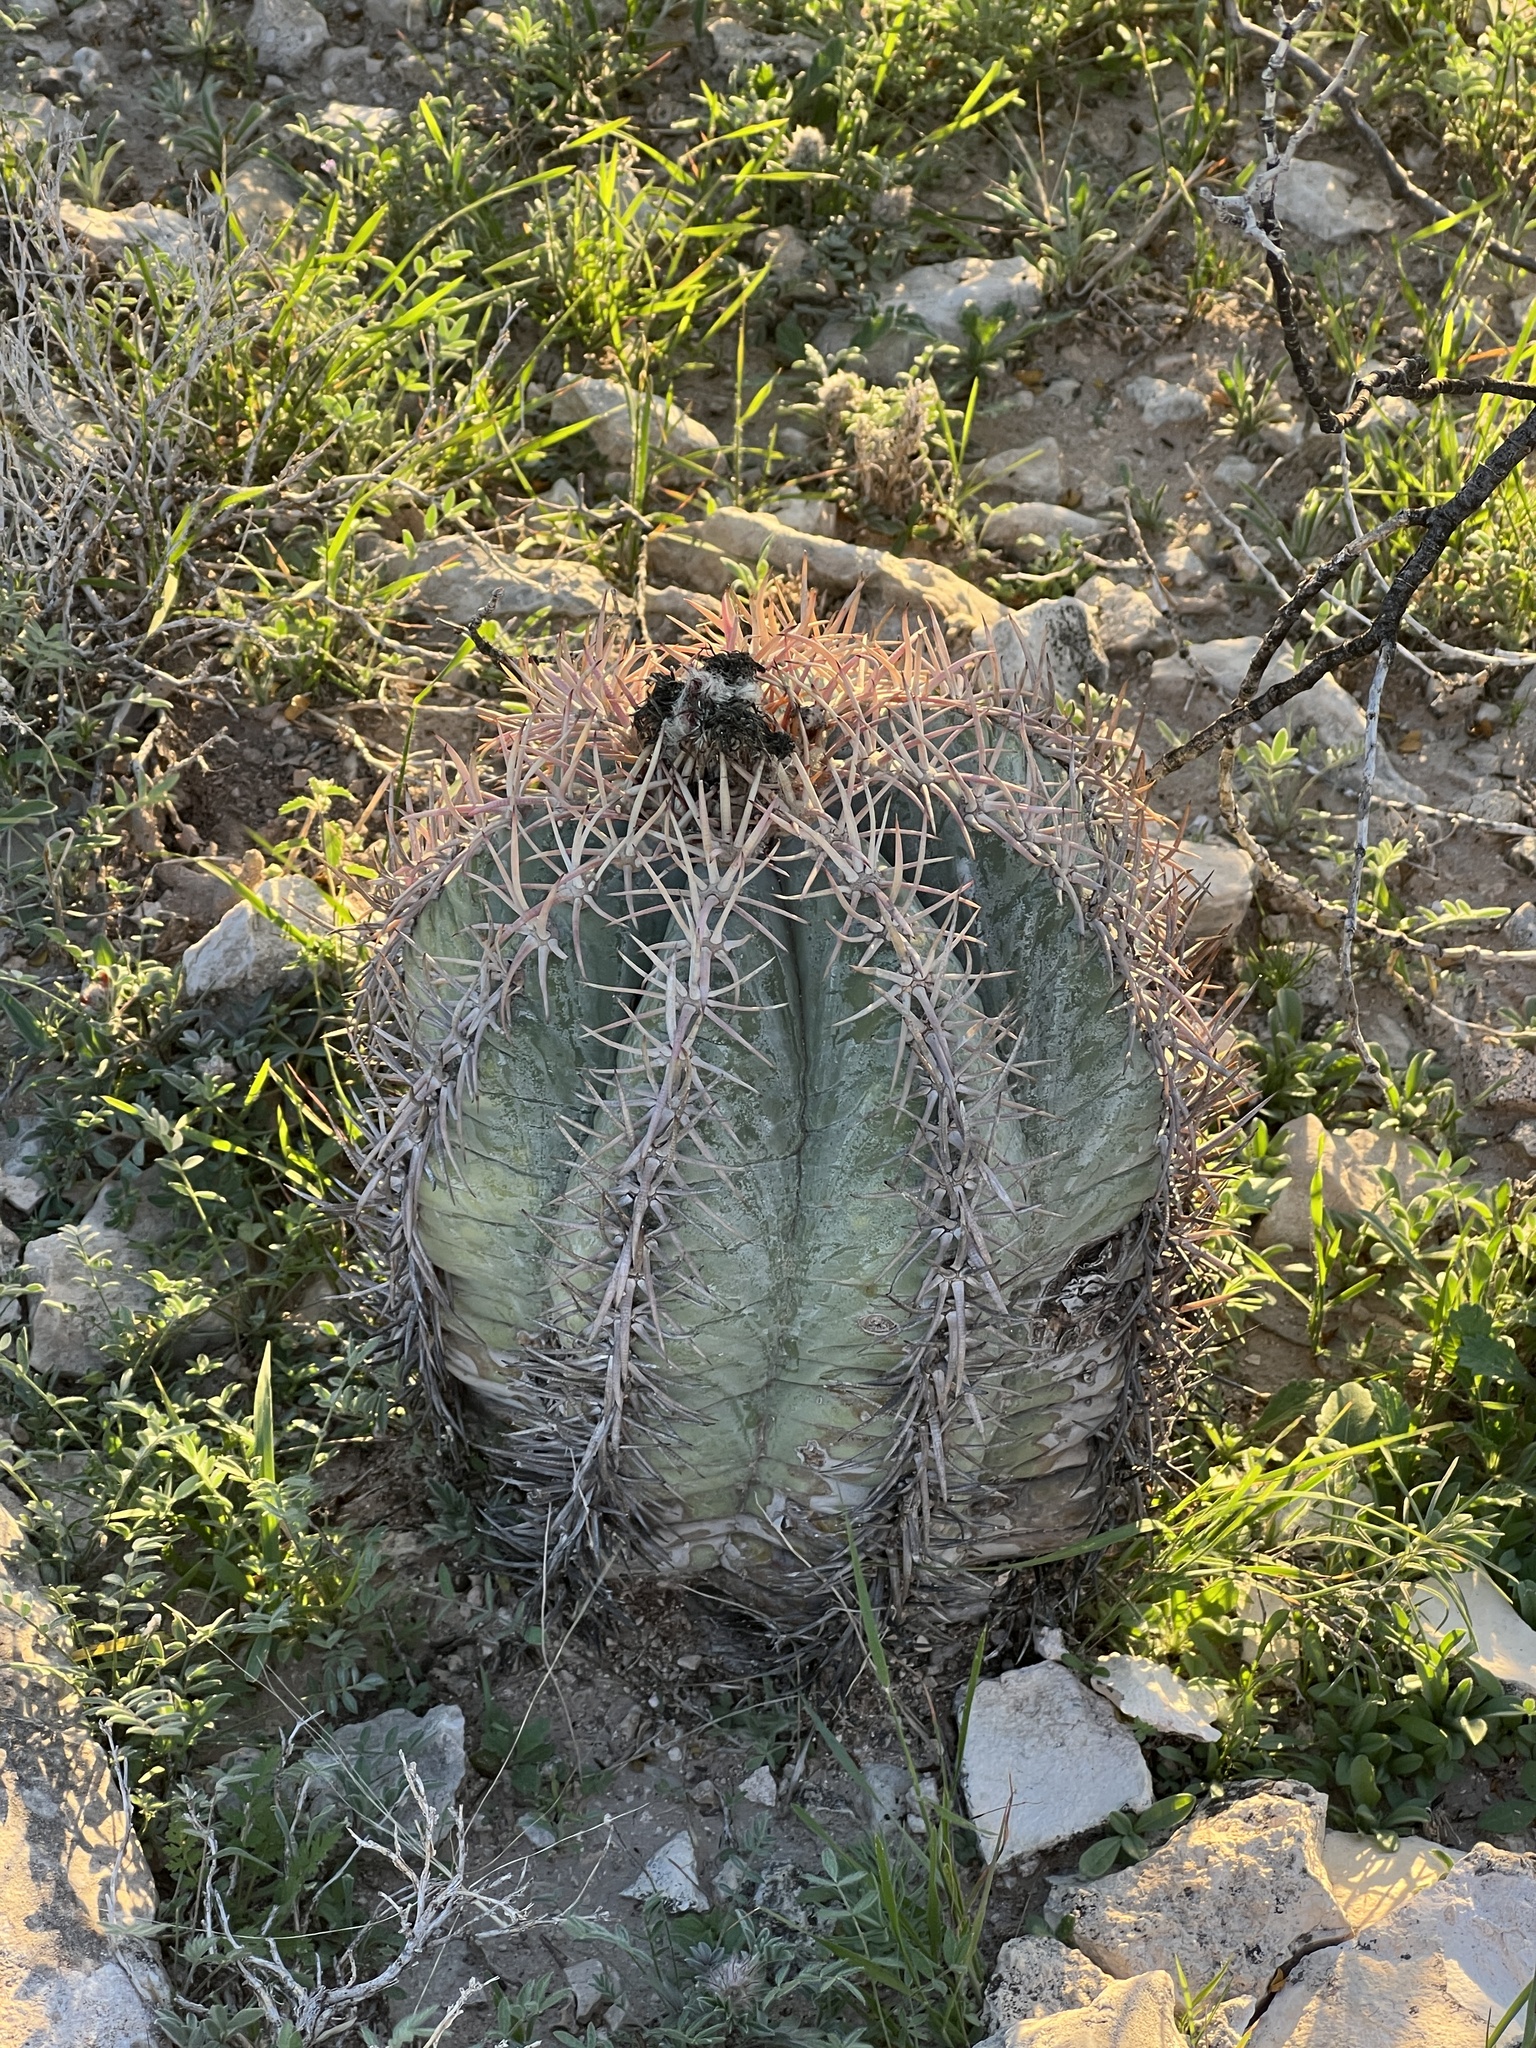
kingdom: Plantae
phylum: Tracheophyta
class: Magnoliopsida
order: Caryophyllales
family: Cactaceae
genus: Echinocactus
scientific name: Echinocactus horizonthalonius
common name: Devilshead
